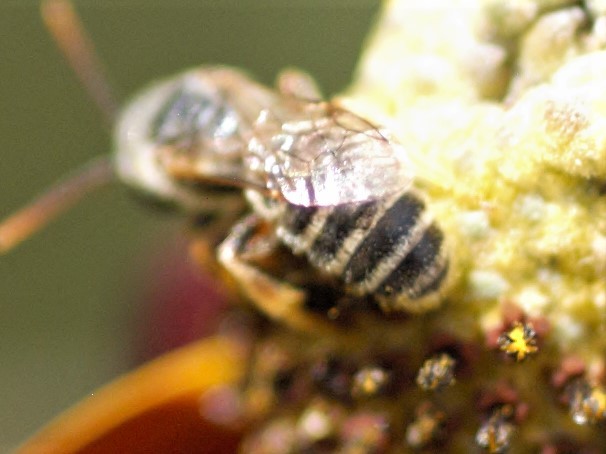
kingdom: Animalia
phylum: Arthropoda
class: Insecta
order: Hymenoptera
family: Halictidae
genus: Halictus
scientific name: Halictus ligatus
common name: Ligated furrow bee
